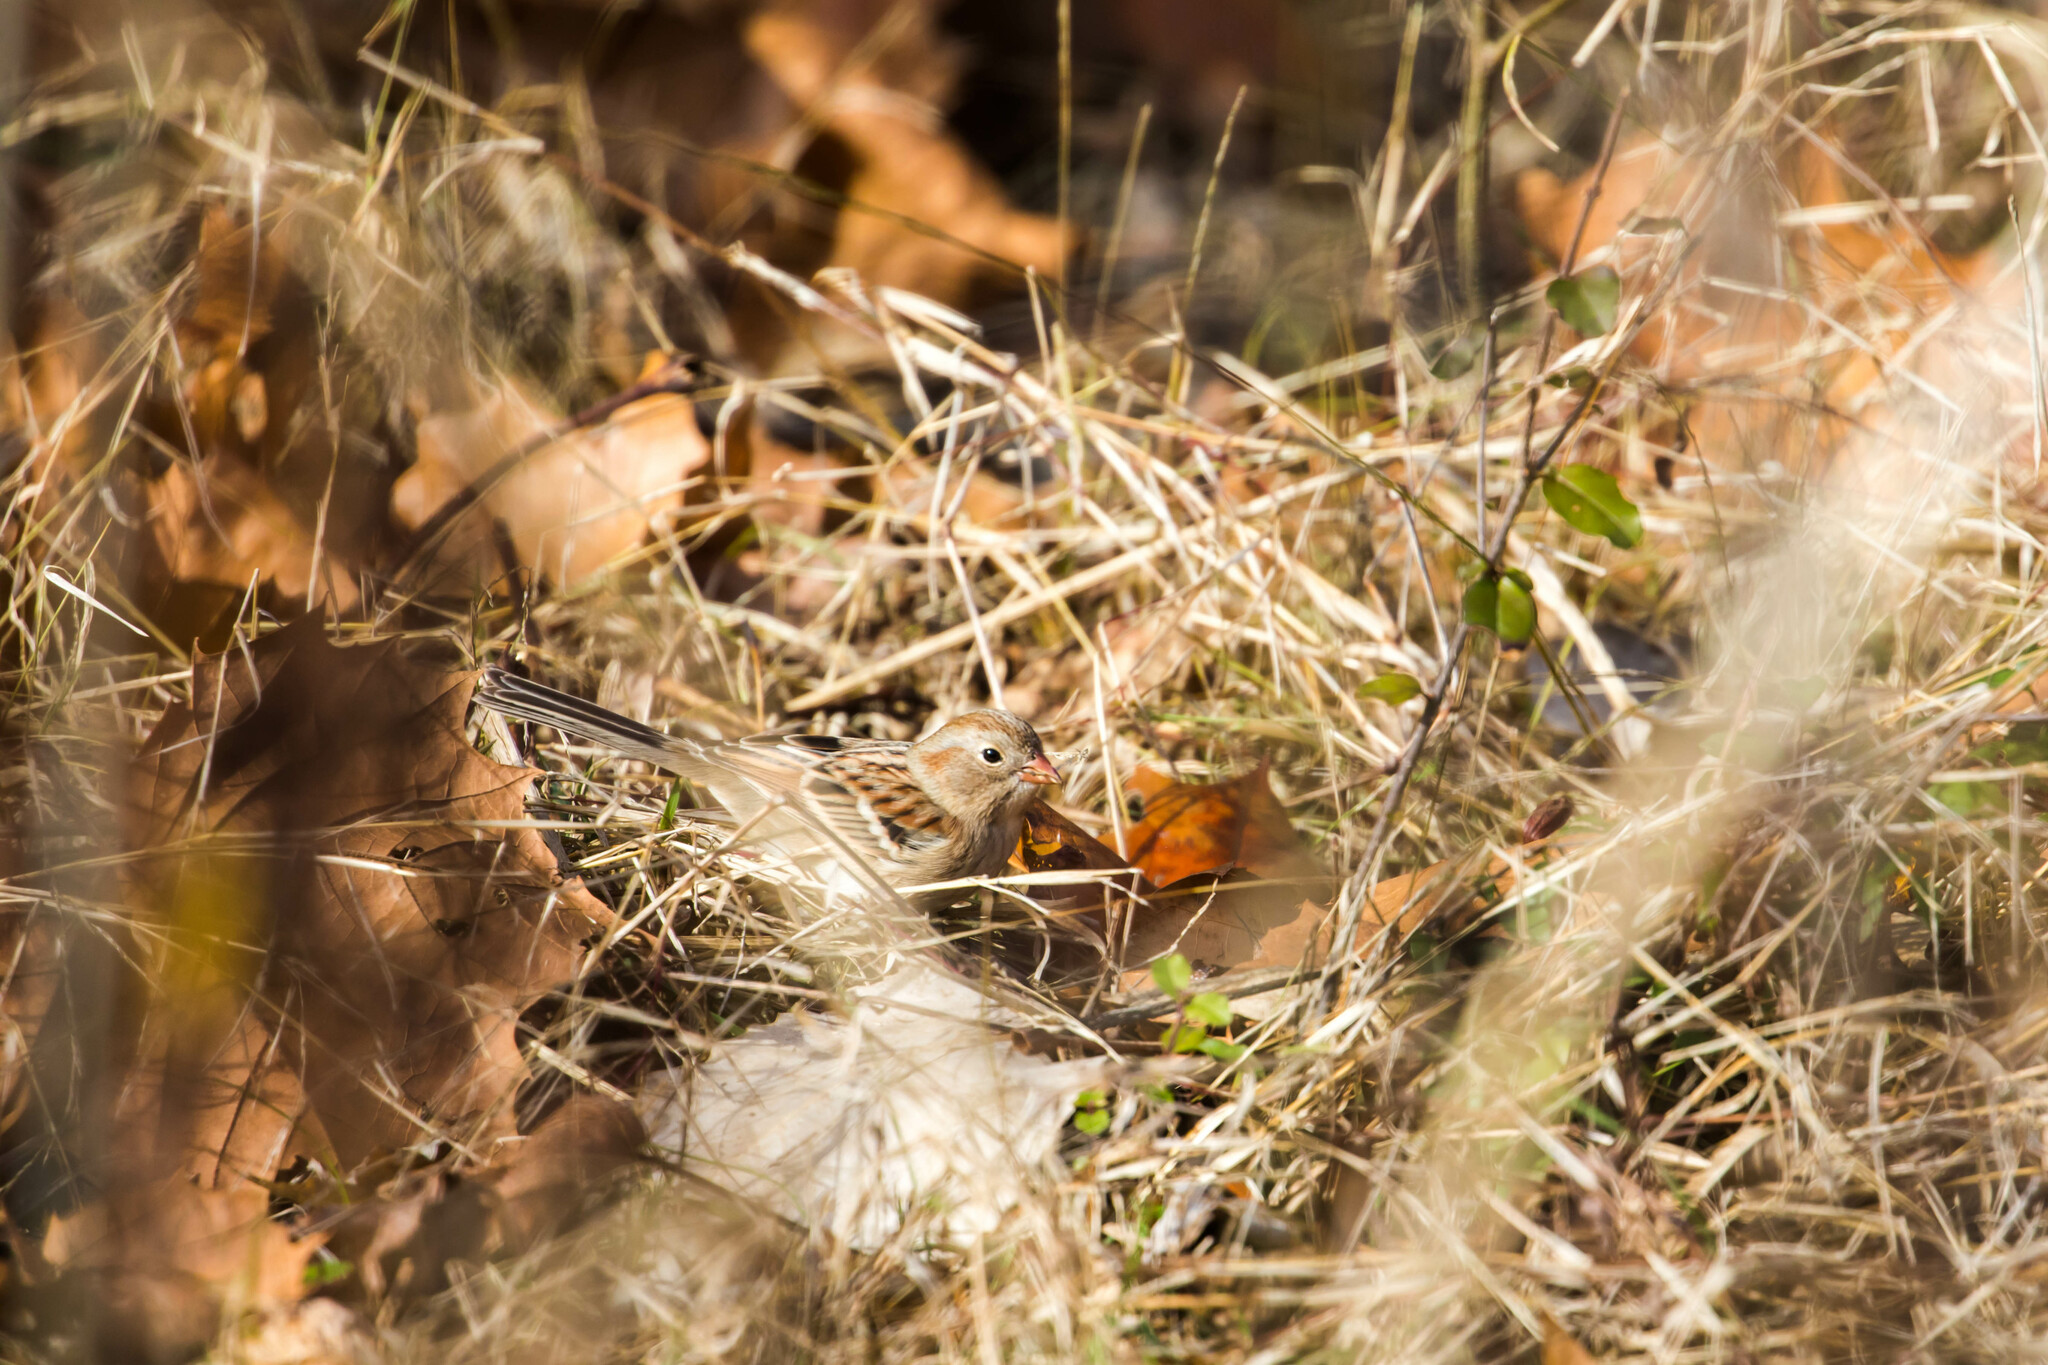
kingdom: Animalia
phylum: Chordata
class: Aves
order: Passeriformes
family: Passerellidae
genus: Spizella
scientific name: Spizella pusilla
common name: Field sparrow
